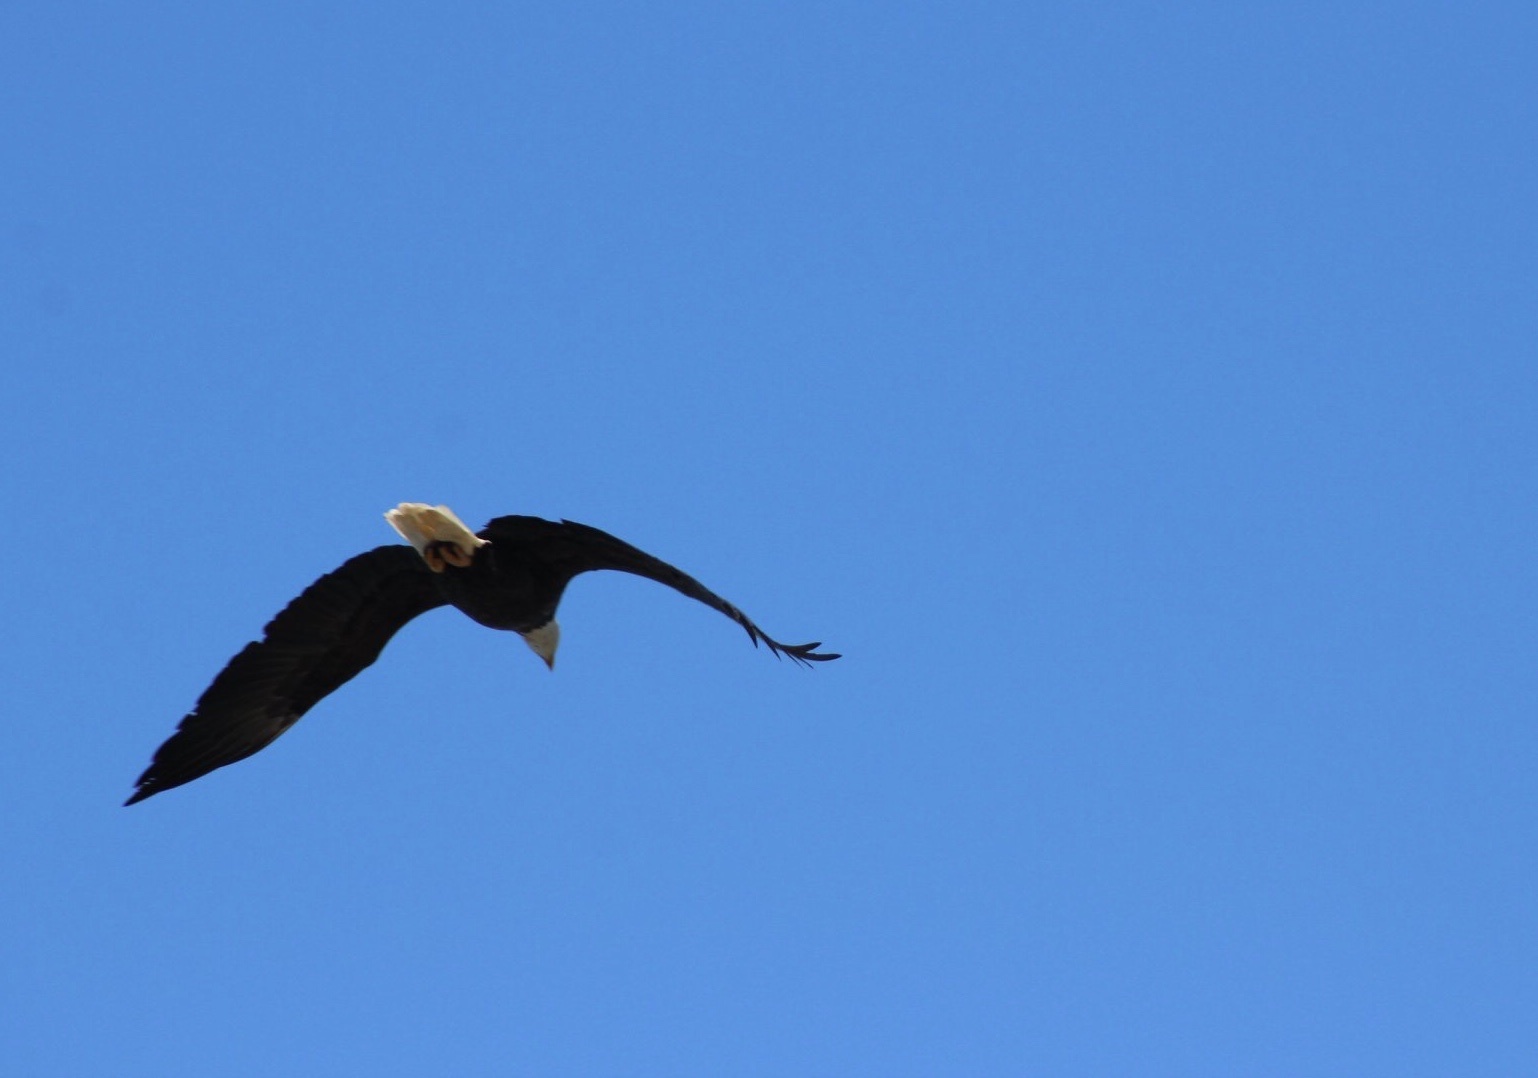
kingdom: Animalia
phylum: Chordata
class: Aves
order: Accipitriformes
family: Accipitridae
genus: Haliaeetus
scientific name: Haliaeetus leucocephalus
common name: Bald eagle
